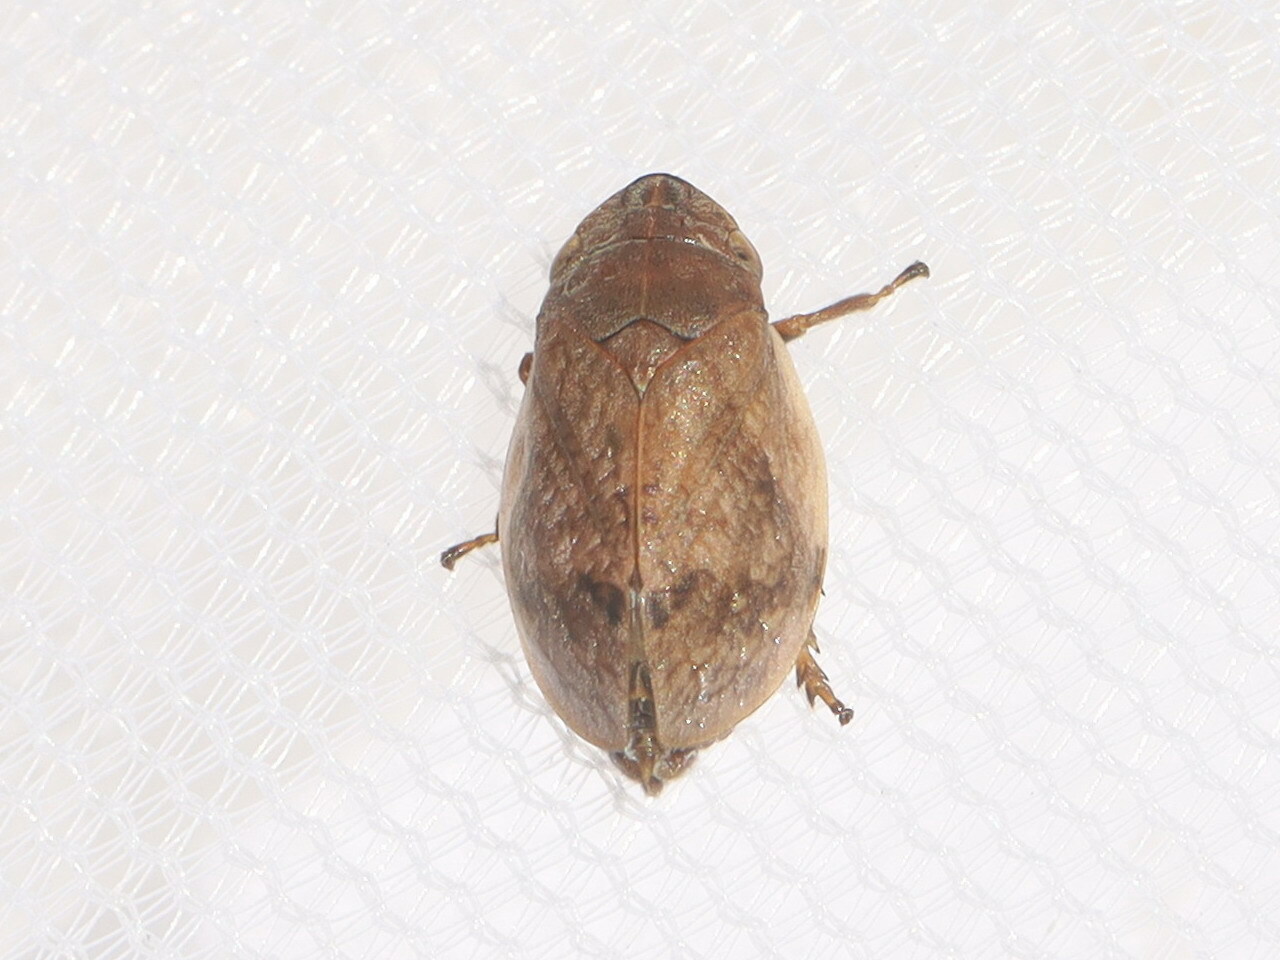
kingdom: Animalia
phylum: Arthropoda
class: Insecta
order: Hemiptera
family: Aphrophoridae
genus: Lepyronia
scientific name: Lepyronia coleoptrata
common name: Leafhopper
